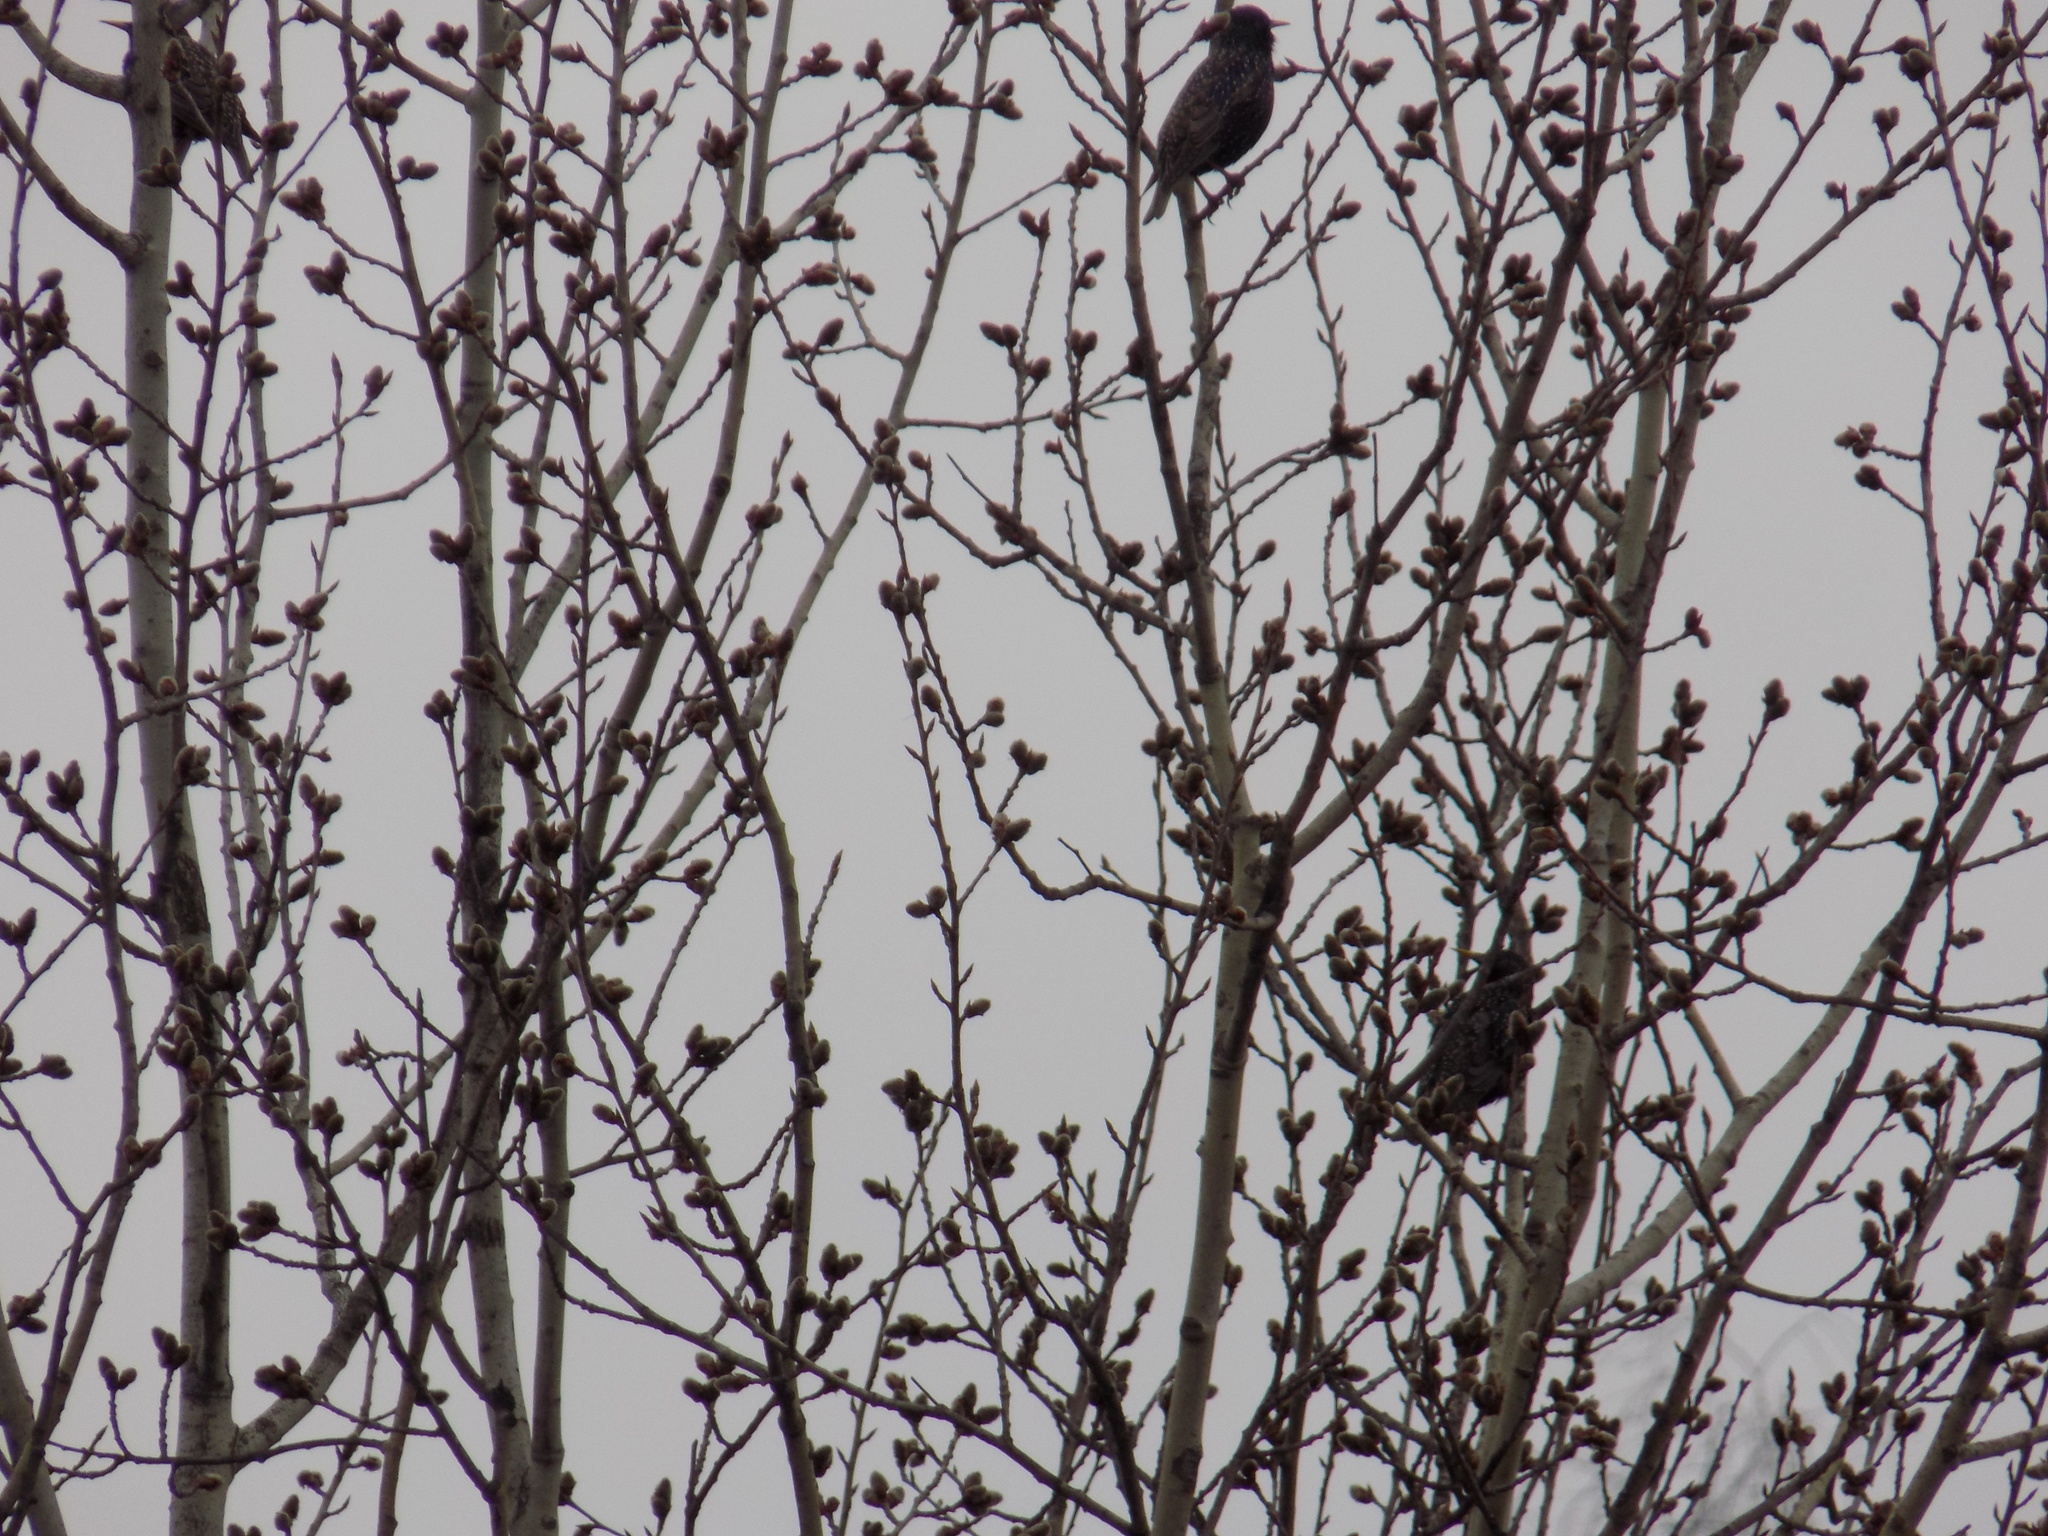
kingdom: Animalia
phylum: Chordata
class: Aves
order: Passeriformes
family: Sturnidae
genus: Sturnus
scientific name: Sturnus vulgaris
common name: Common starling
